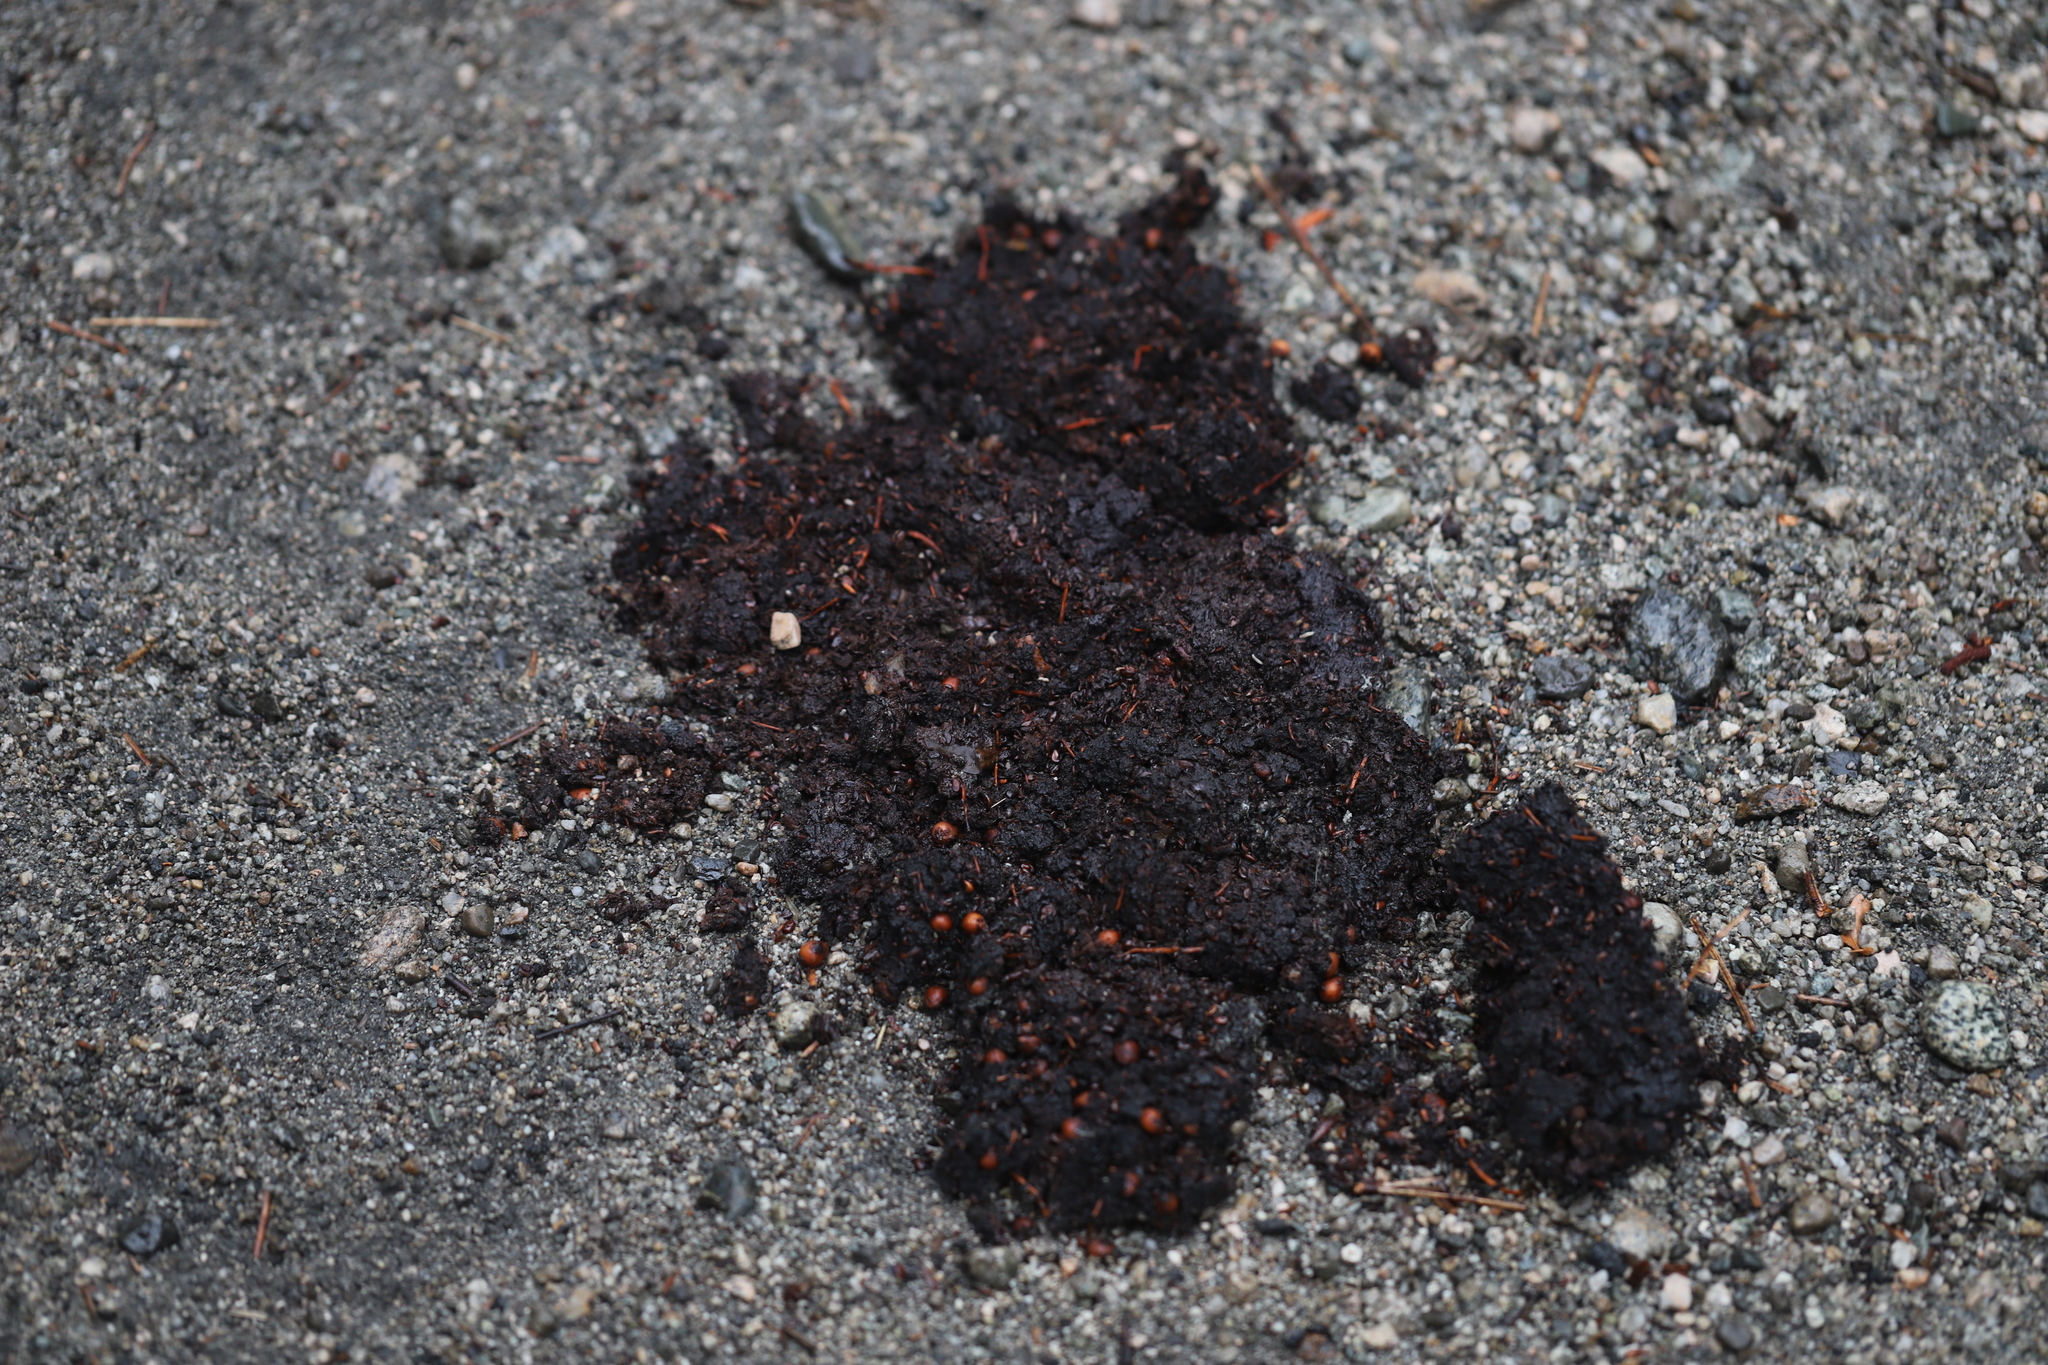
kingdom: Animalia
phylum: Chordata
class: Mammalia
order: Carnivora
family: Ursidae
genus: Ursus
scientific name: Ursus americanus
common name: American black bear
